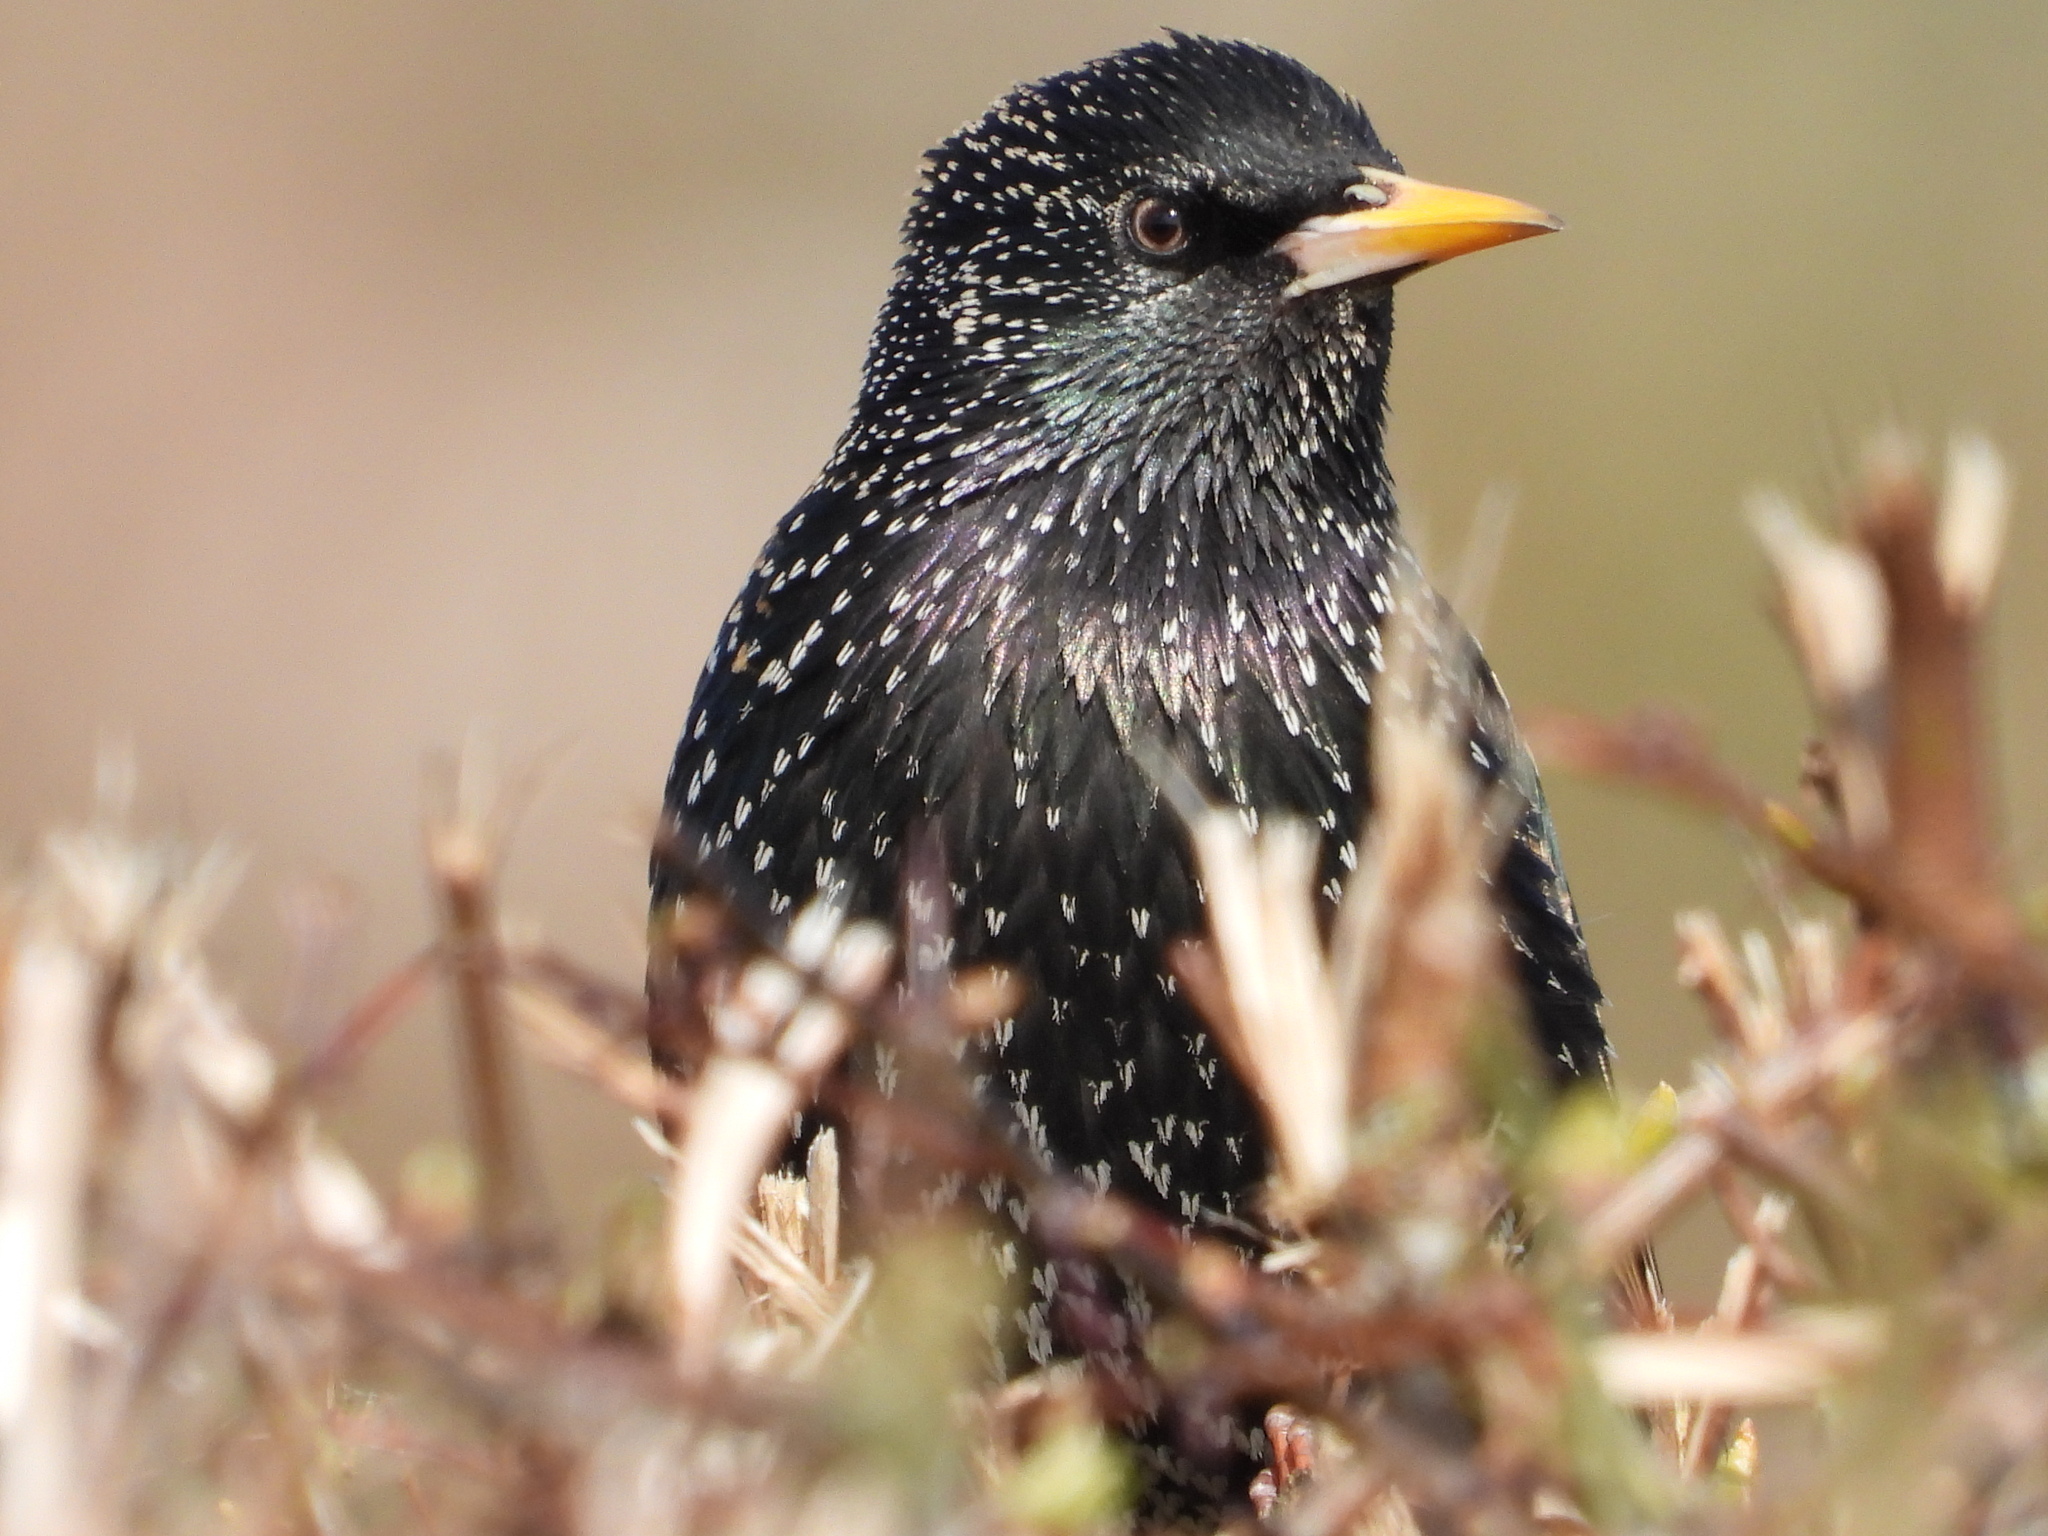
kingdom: Animalia
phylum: Chordata
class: Aves
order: Passeriformes
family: Sturnidae
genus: Sturnus
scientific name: Sturnus vulgaris
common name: Common starling
